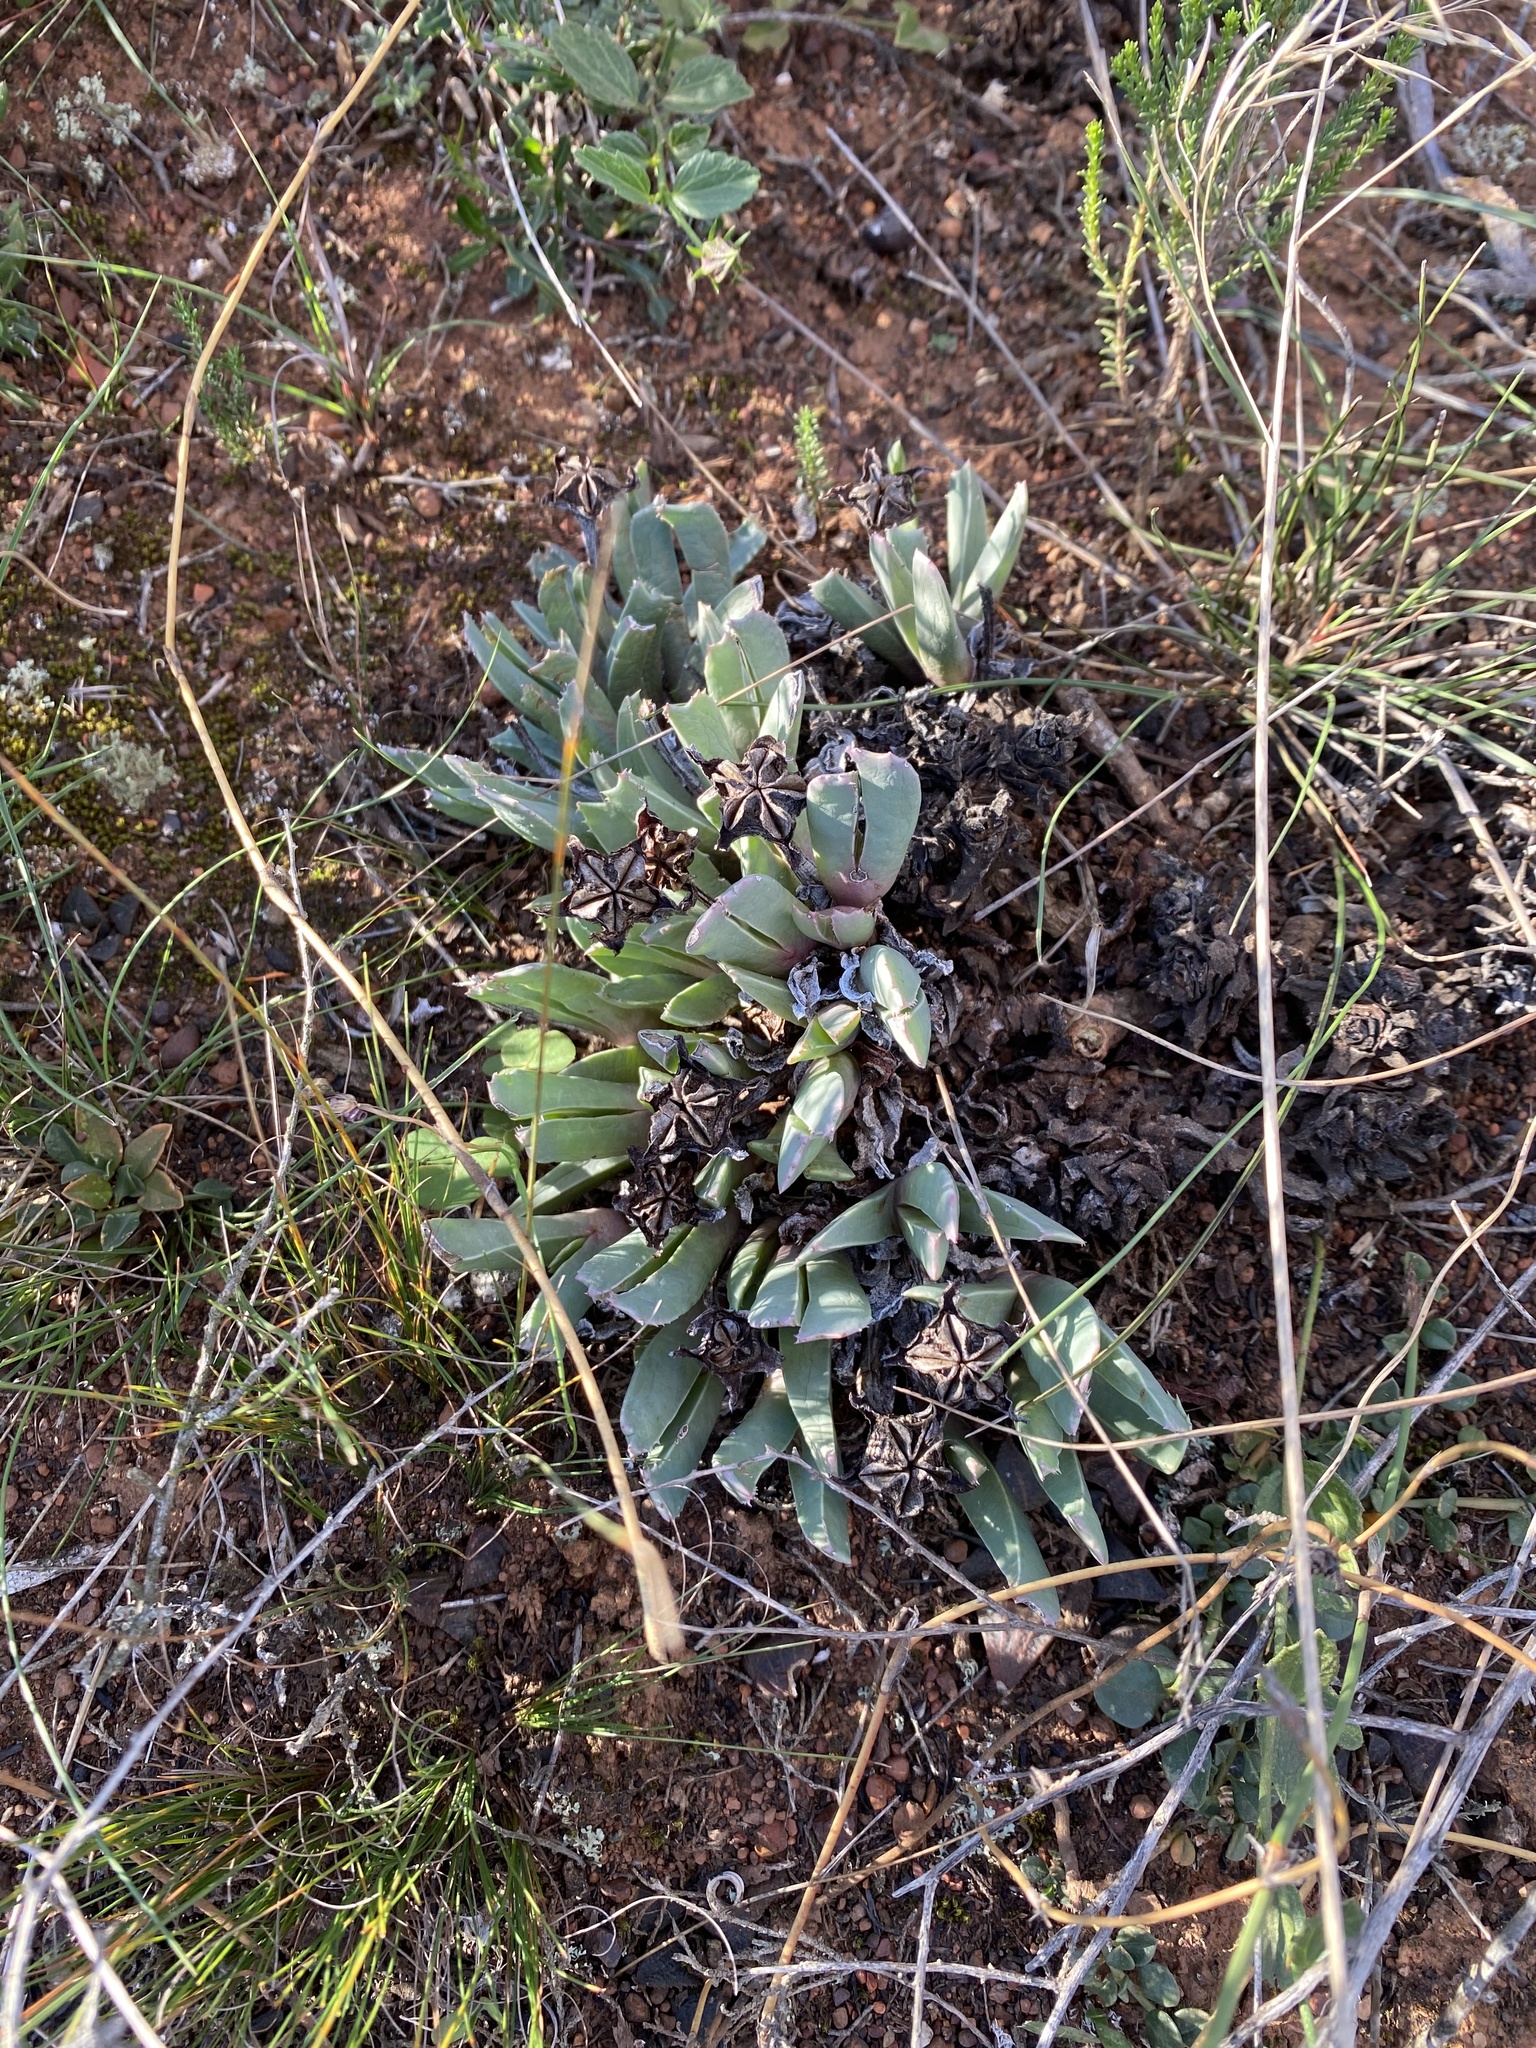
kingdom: Plantae
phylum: Tracheophyta
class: Magnoliopsida
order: Caryophyllales
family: Aizoaceae
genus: Acrodon
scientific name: Acrodon bellidiflorus
